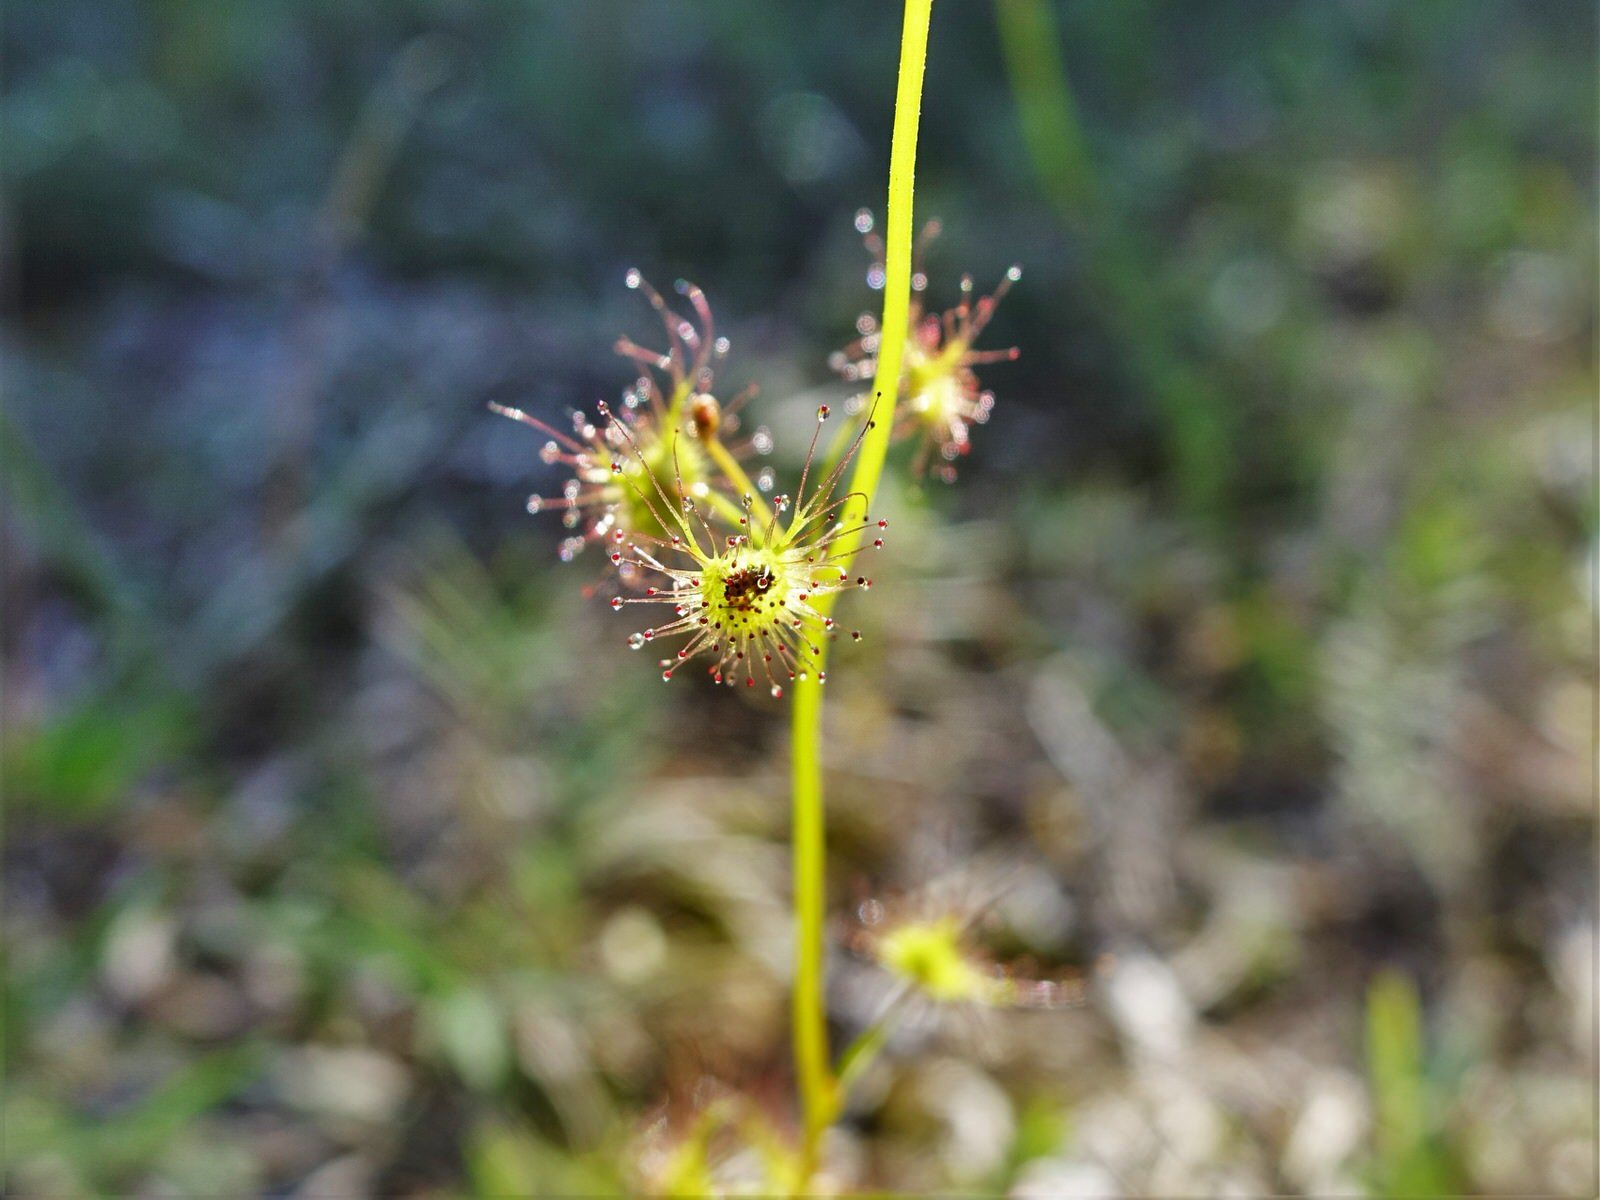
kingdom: Plantae
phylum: Tracheophyta
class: Magnoliopsida
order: Caryophyllales
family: Droseraceae
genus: Drosera
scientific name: Drosera peltata
